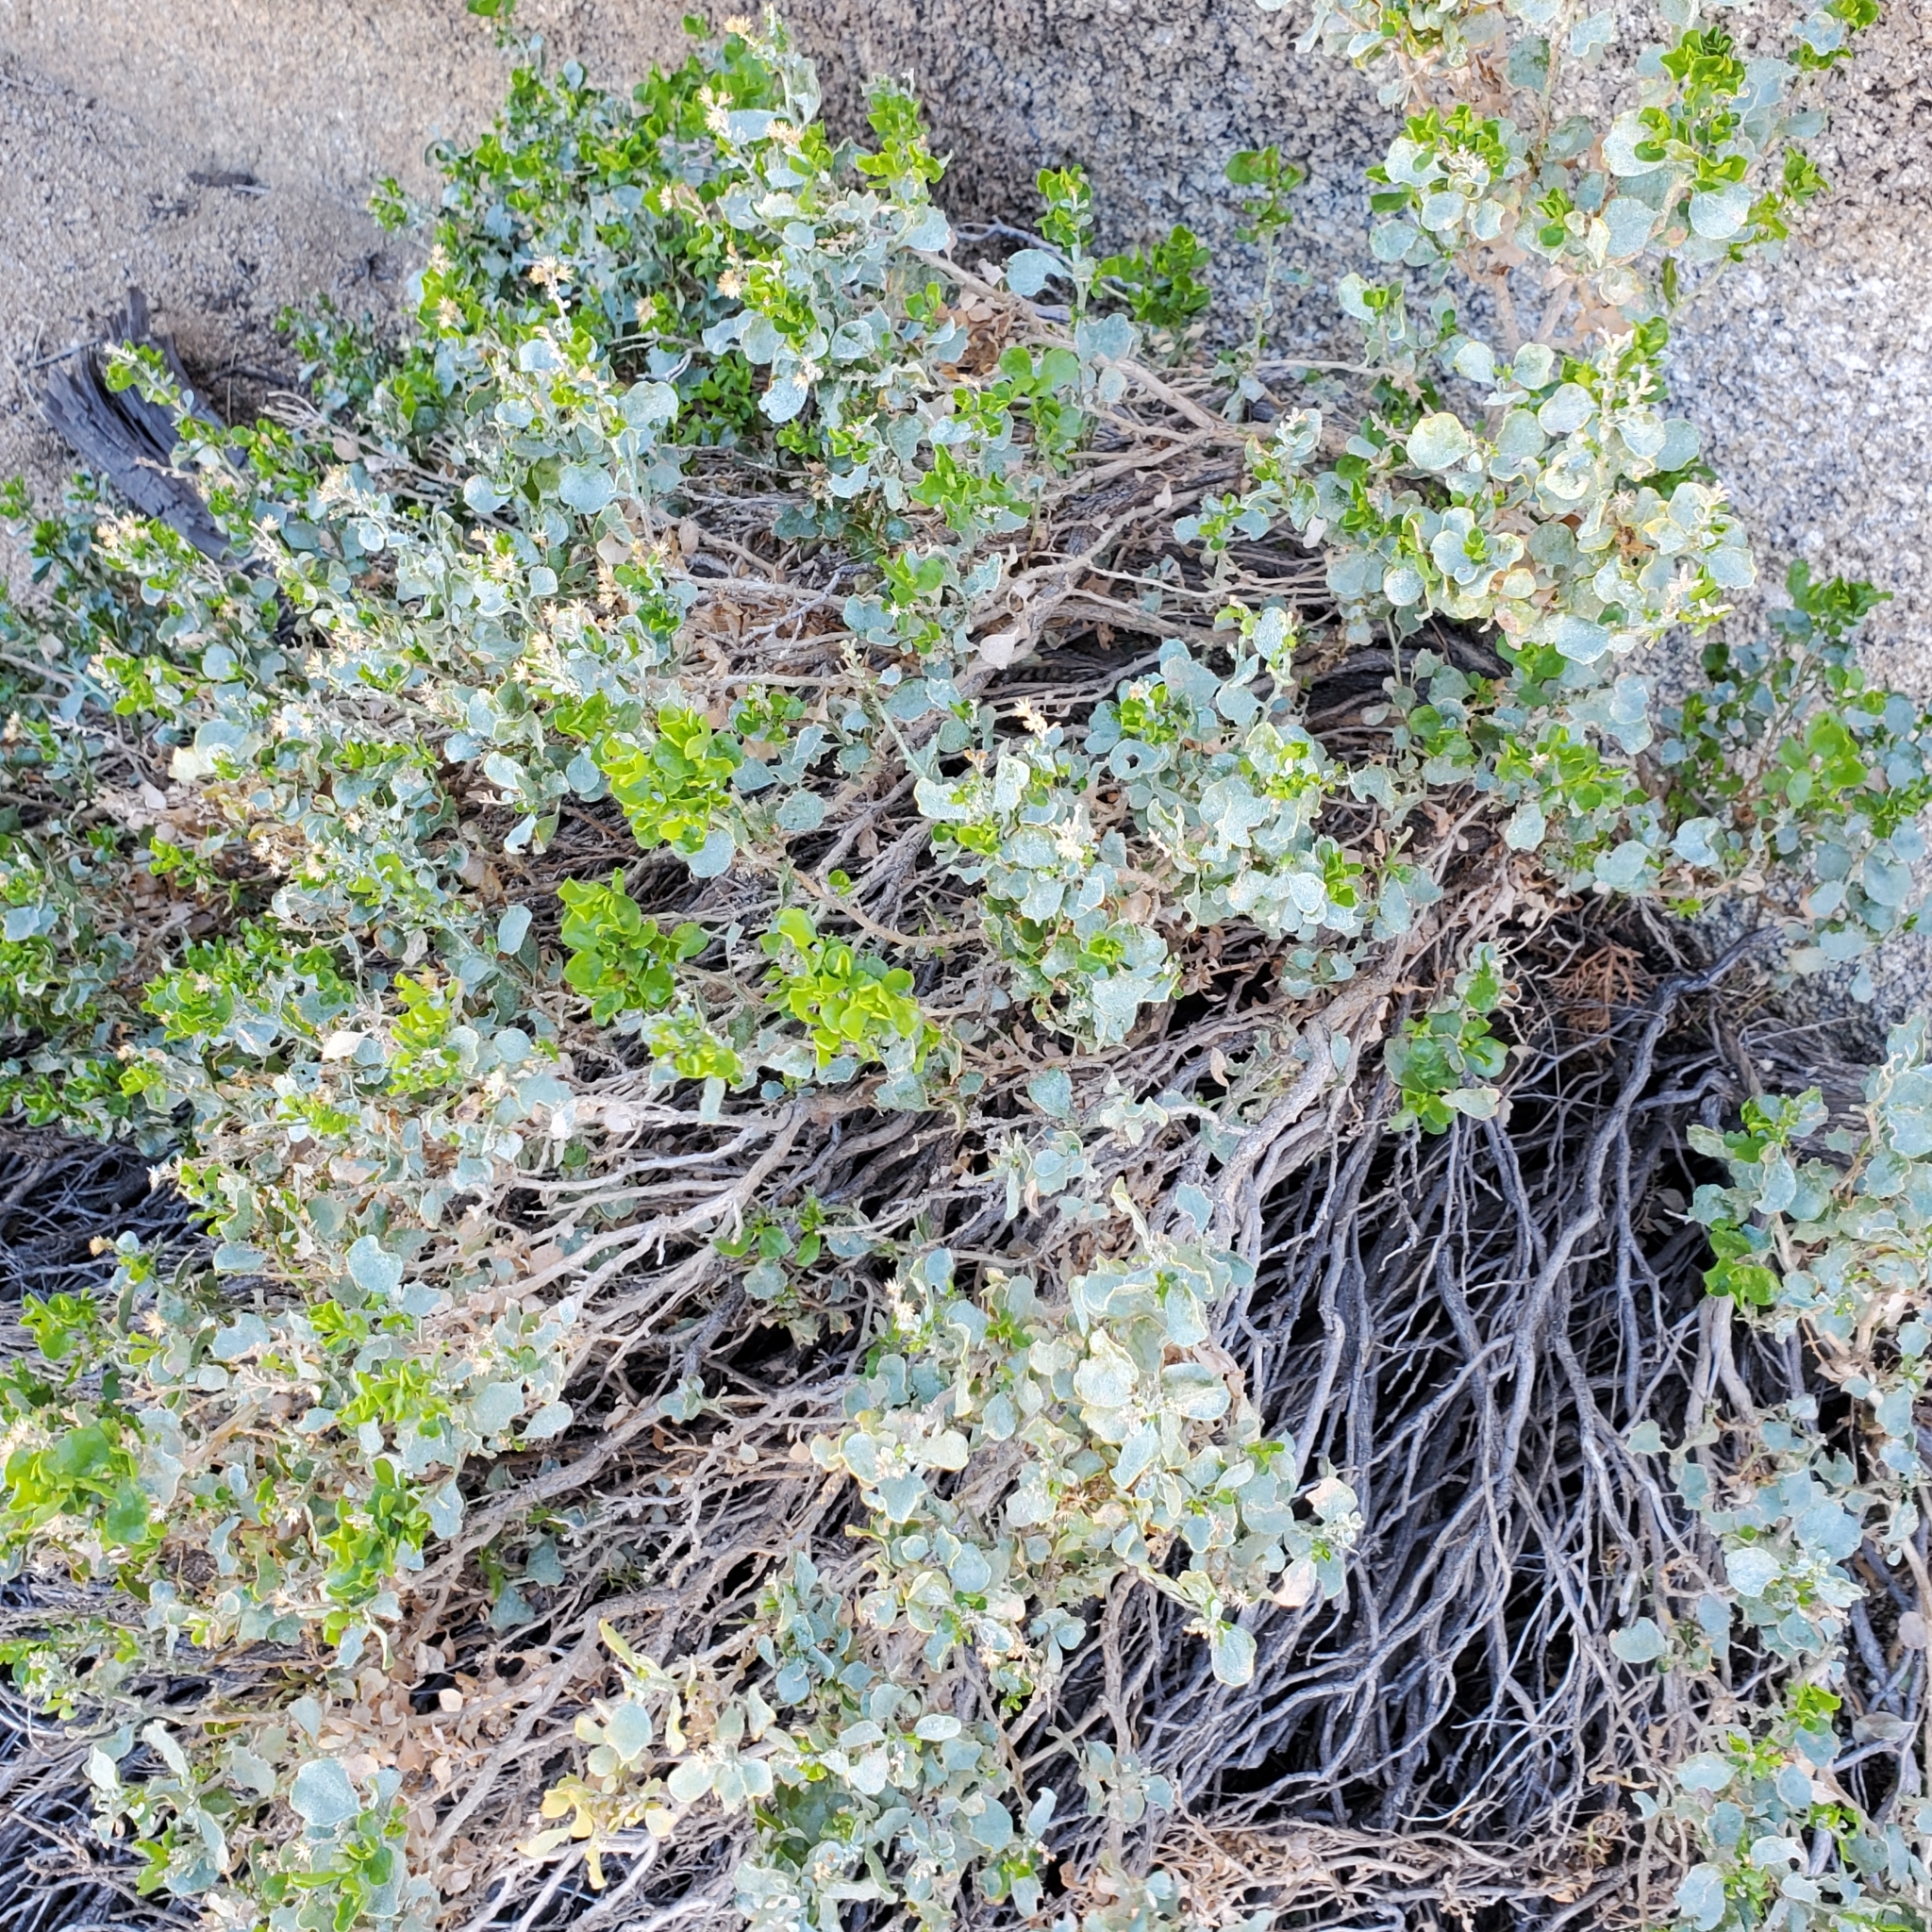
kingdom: Plantae
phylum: Tracheophyta
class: Magnoliopsida
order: Asterales
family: Asteraceae
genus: Ericameria
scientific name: Ericameria cuneata
